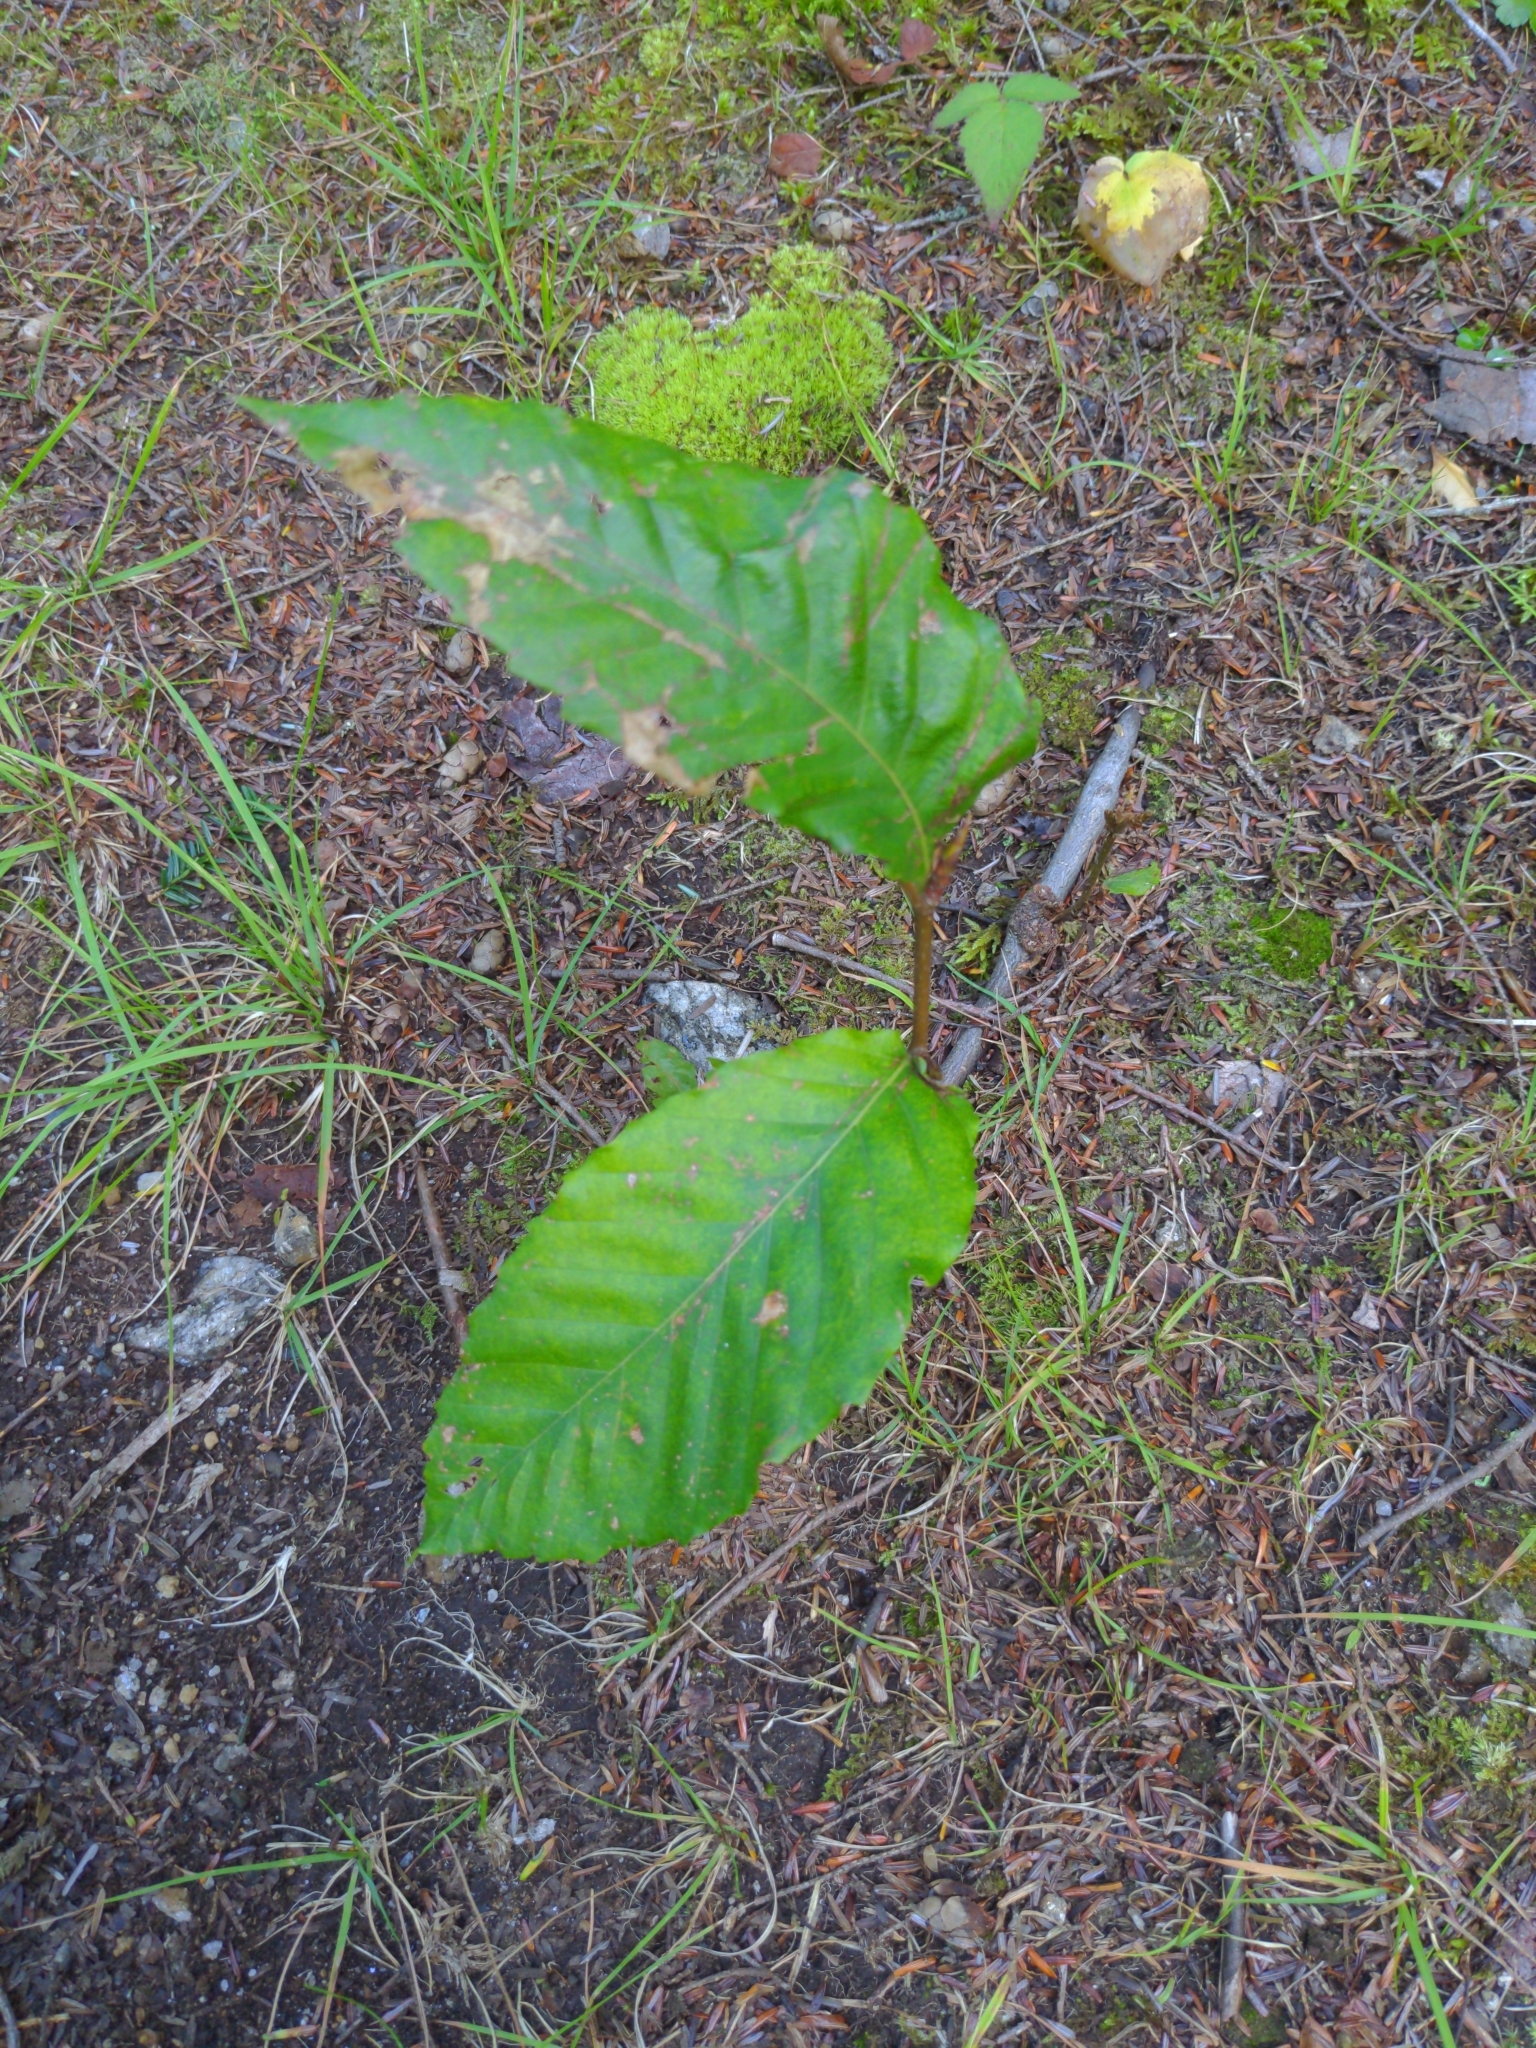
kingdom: Plantae
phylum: Tracheophyta
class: Magnoliopsida
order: Fagales
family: Fagaceae
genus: Fagus
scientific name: Fagus grandifolia
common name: American beech
